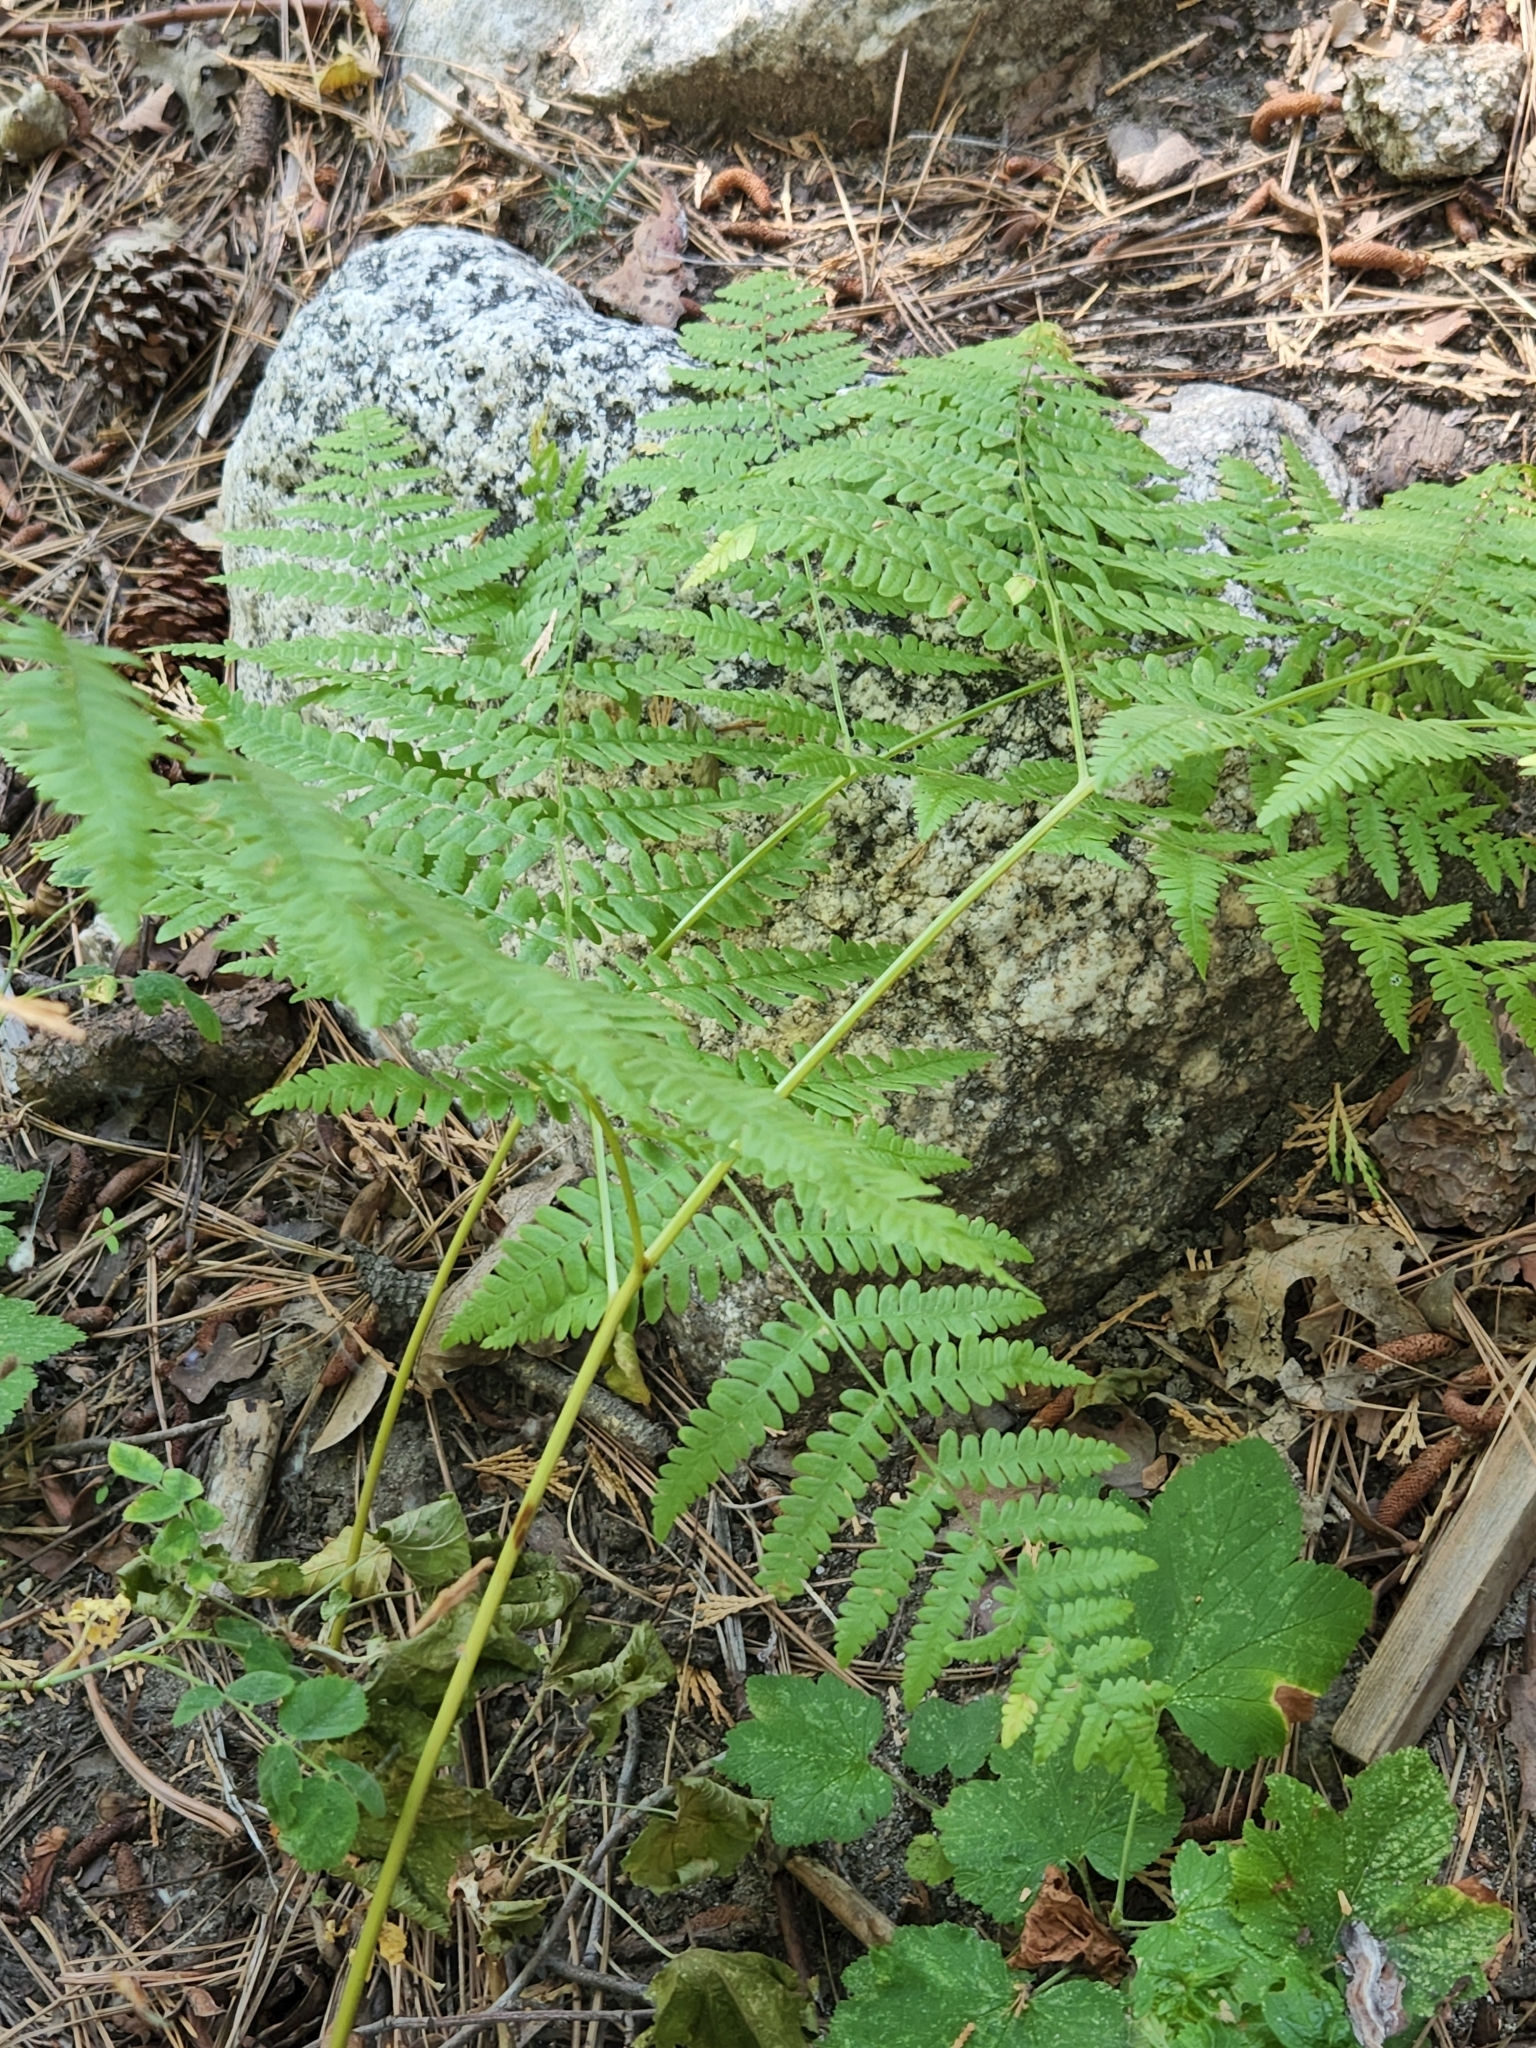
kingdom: Plantae
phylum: Tracheophyta
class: Polypodiopsida
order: Polypodiales
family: Dennstaedtiaceae
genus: Pteridium
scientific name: Pteridium aquilinum
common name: Bracken
